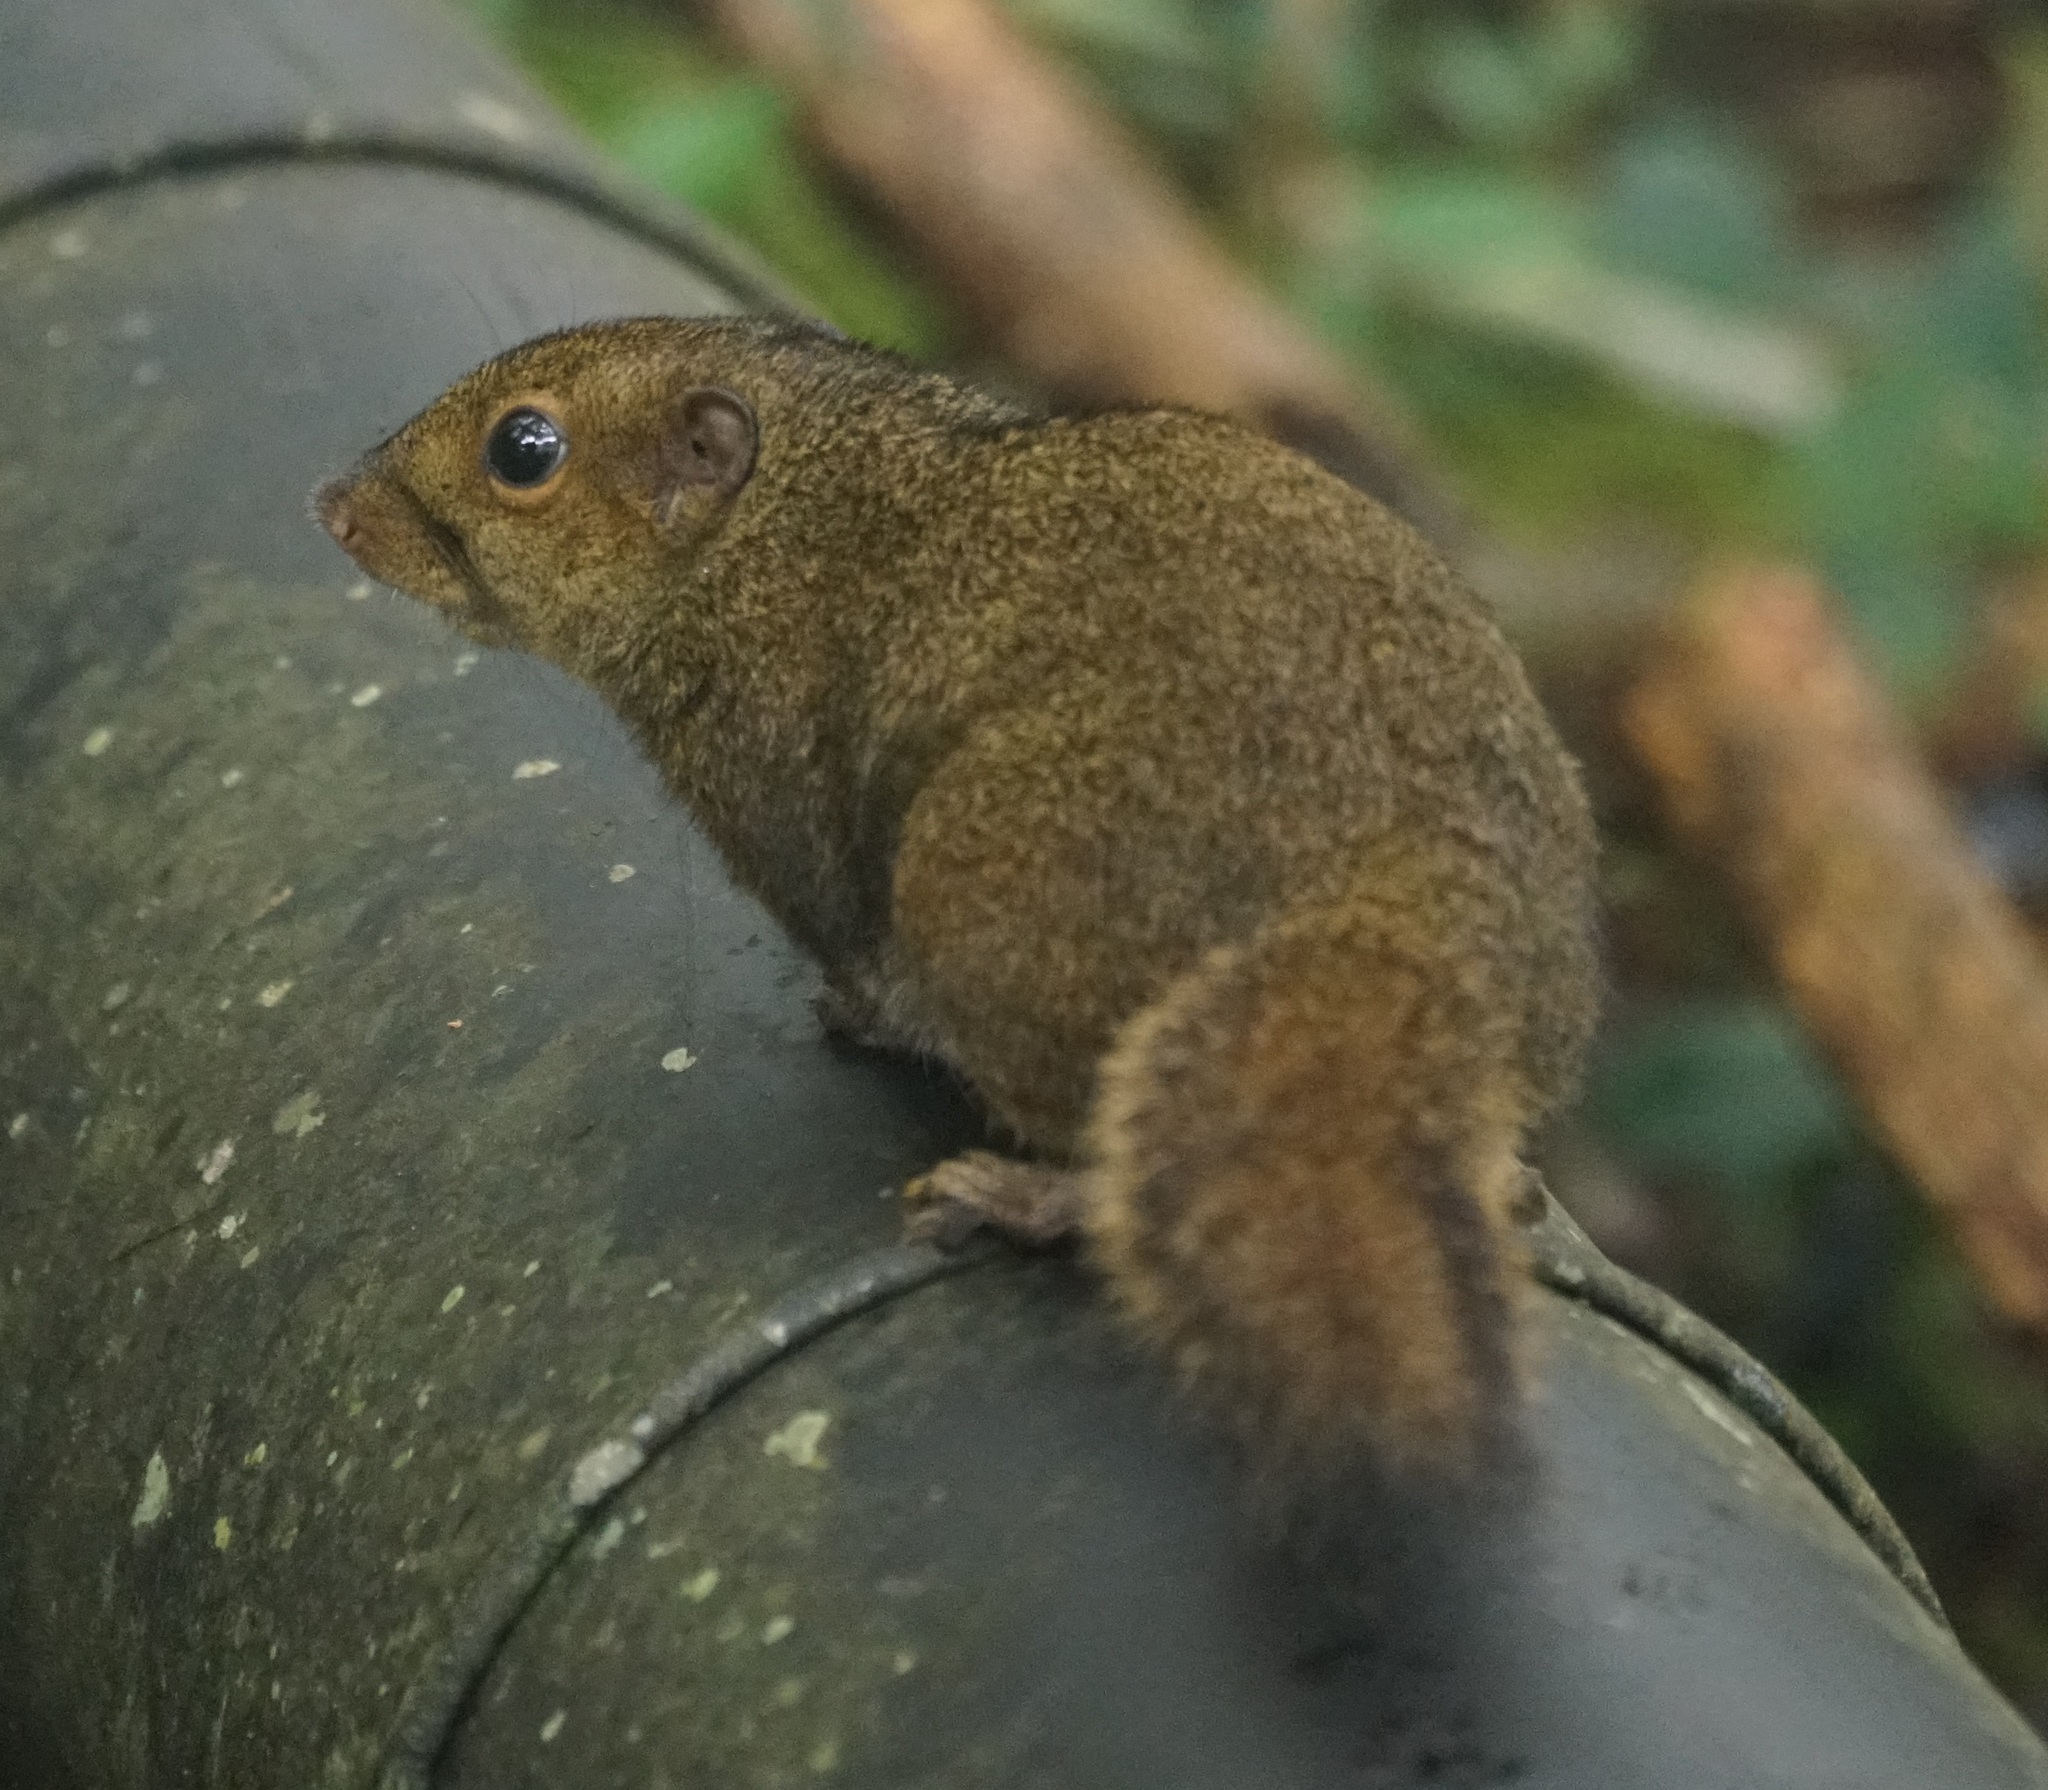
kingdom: Animalia
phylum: Chordata
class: Mammalia
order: Rodentia
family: Sciuridae
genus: Sundasciurus
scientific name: Sundasciurus everetti
